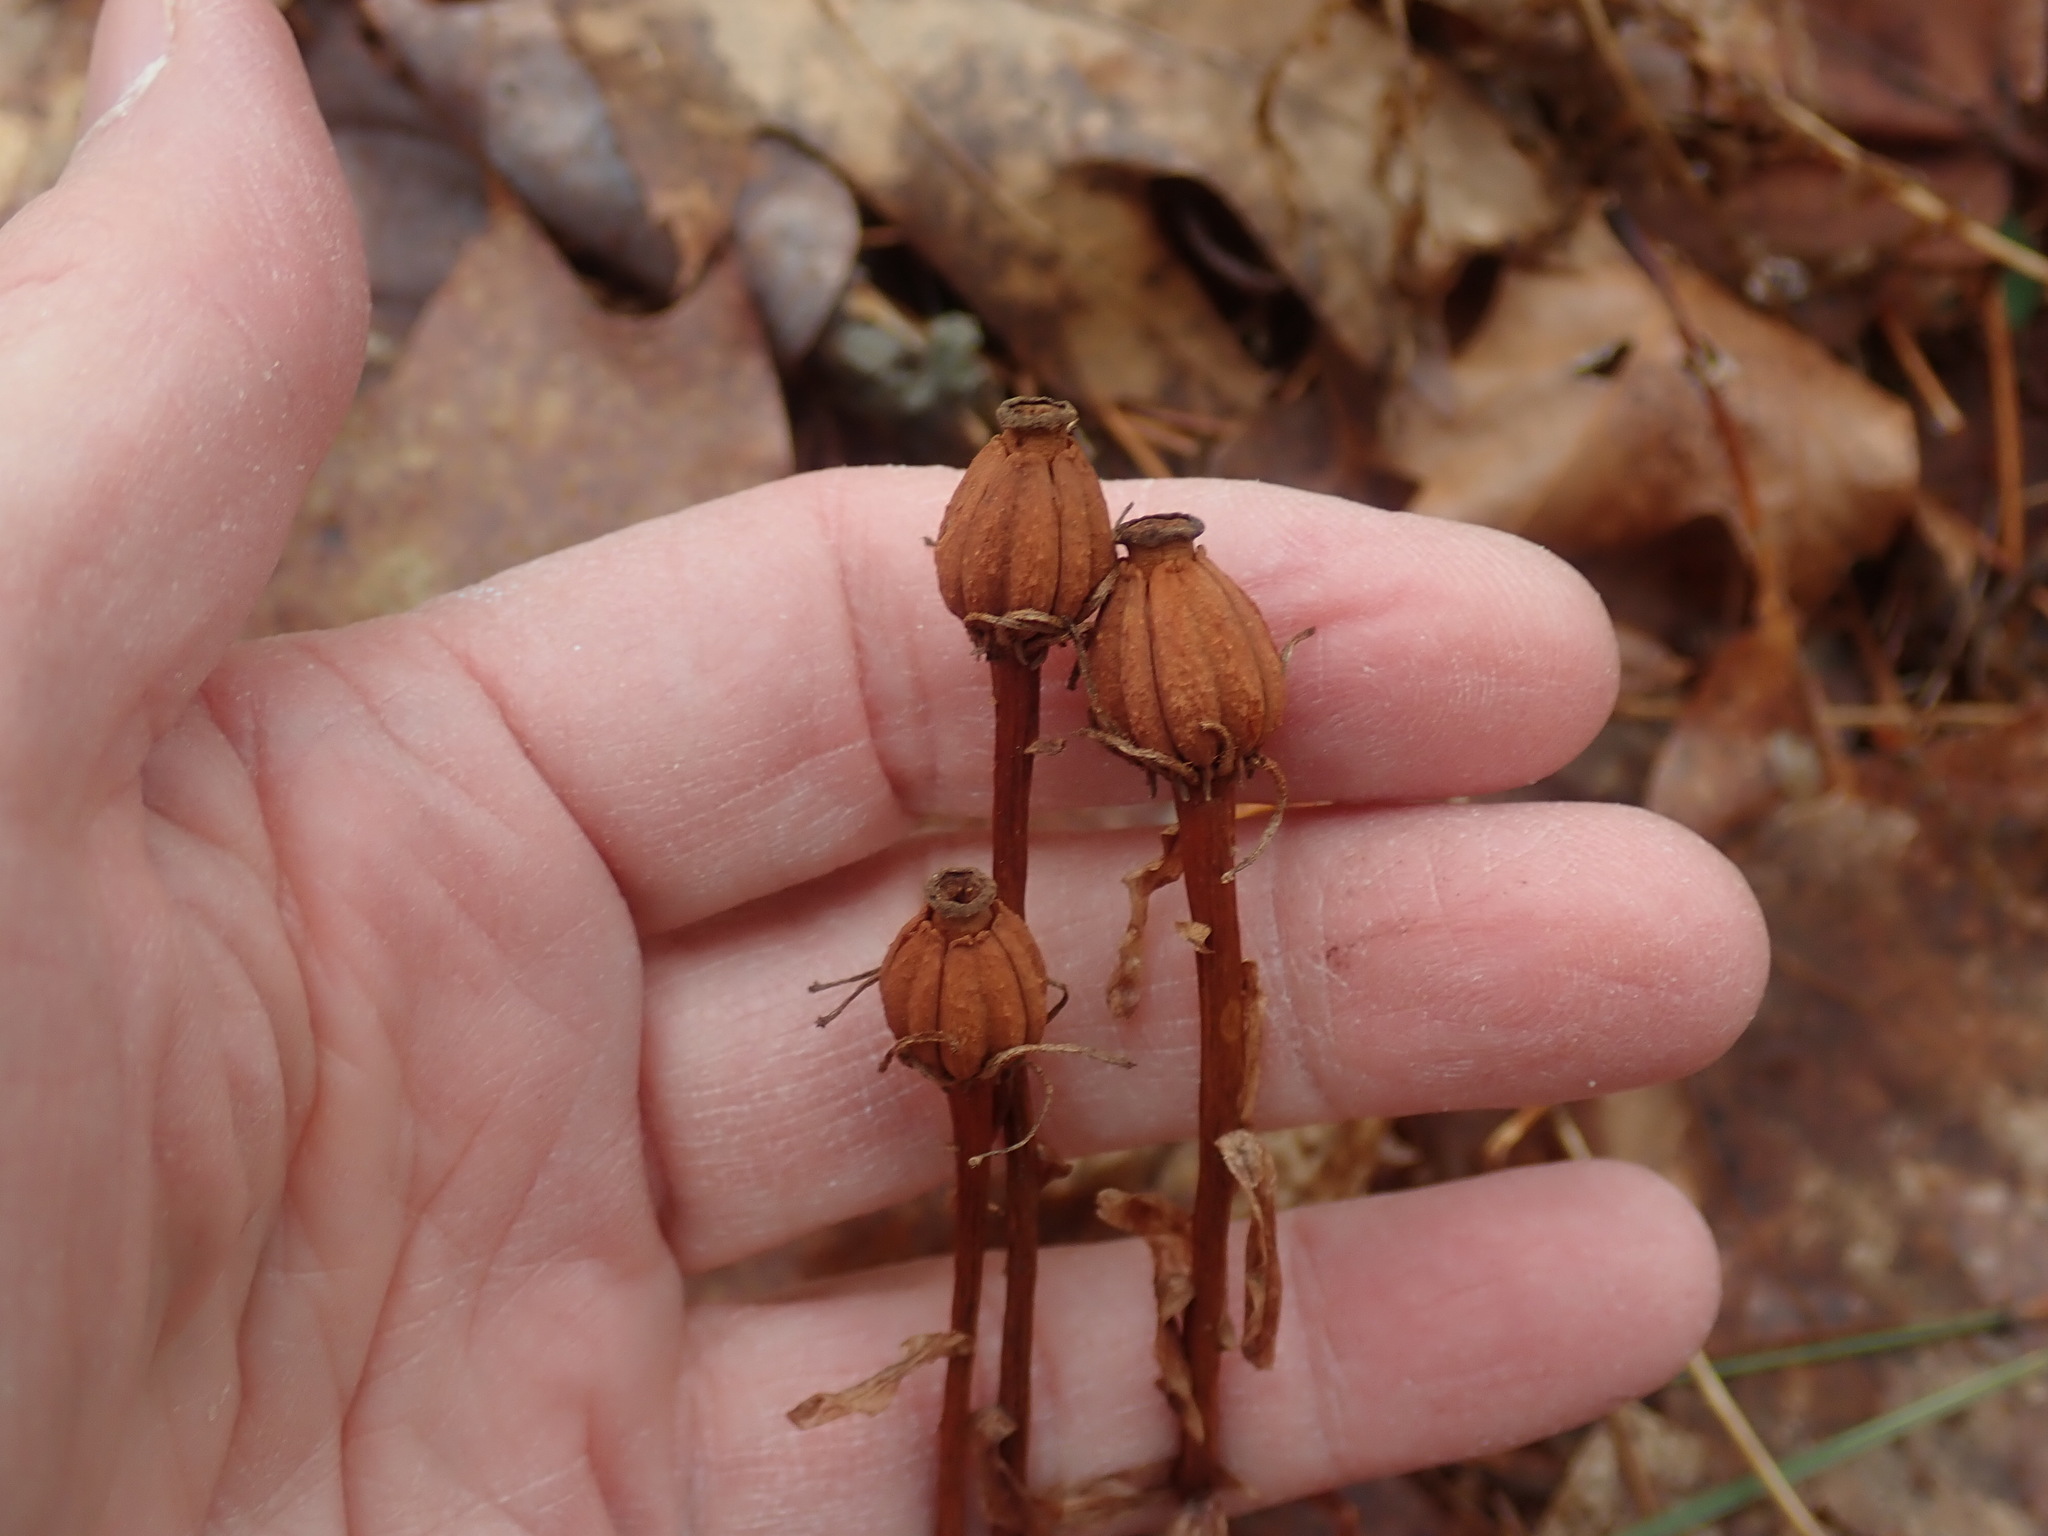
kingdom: Plantae
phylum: Tracheophyta
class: Magnoliopsida
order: Ericales
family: Ericaceae
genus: Monotropa
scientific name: Monotropa uniflora
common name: Convulsion root
